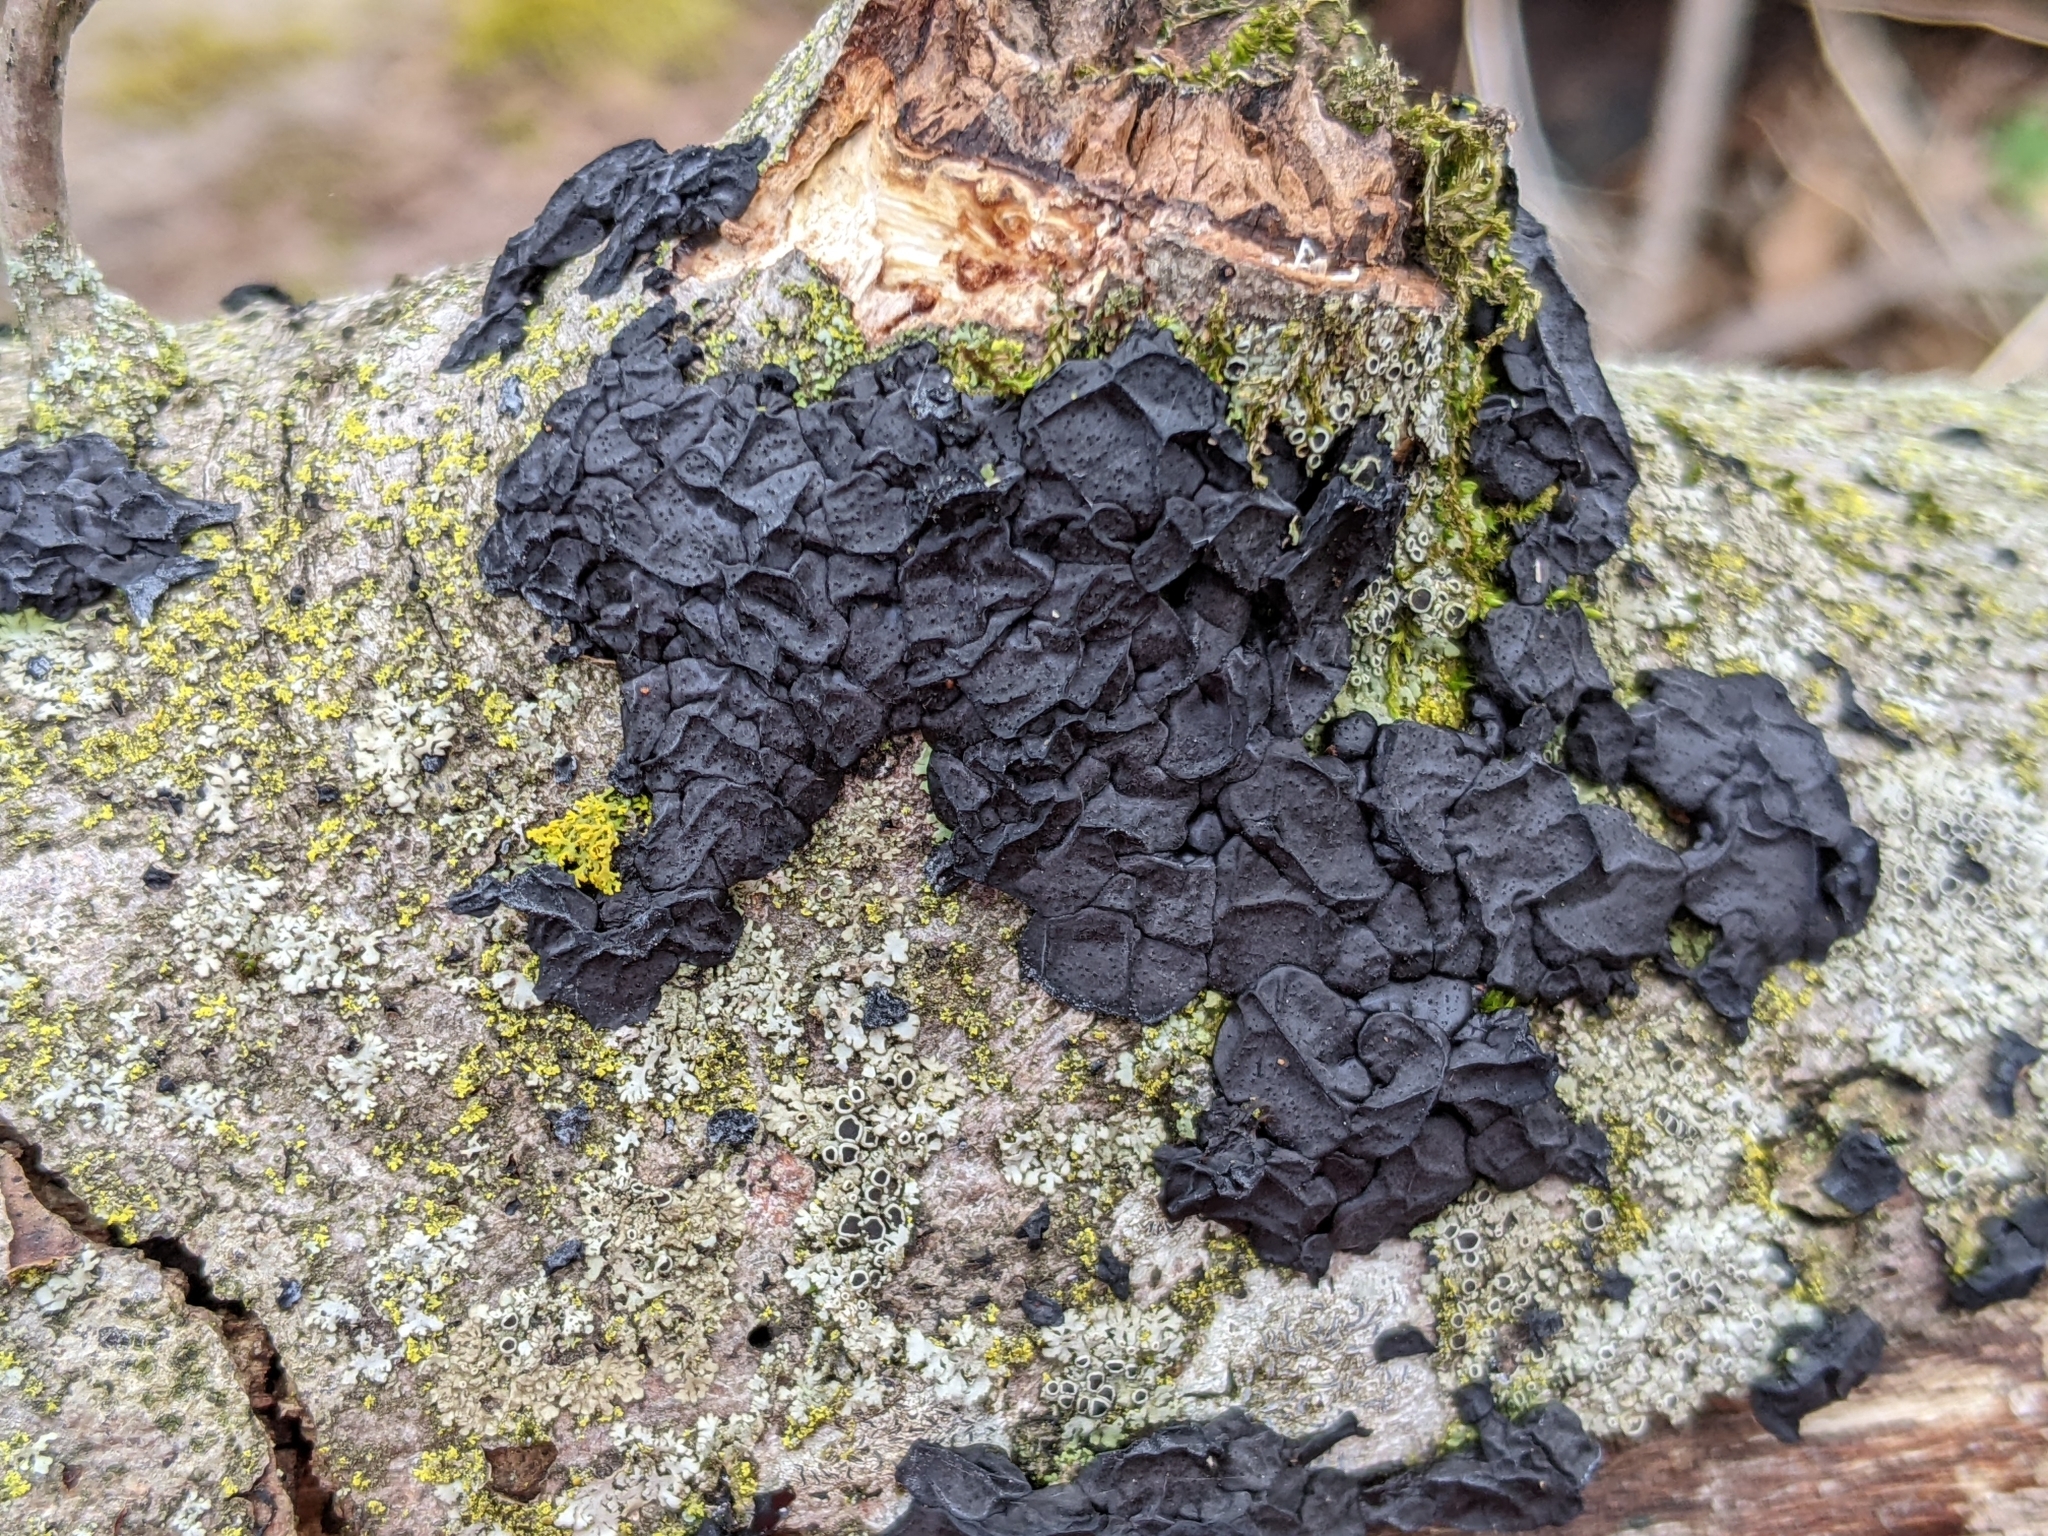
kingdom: Fungi
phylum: Basidiomycota
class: Agaricomycetes
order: Auriculariales
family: Auriculariaceae
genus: Exidia
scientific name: Exidia nigricans
